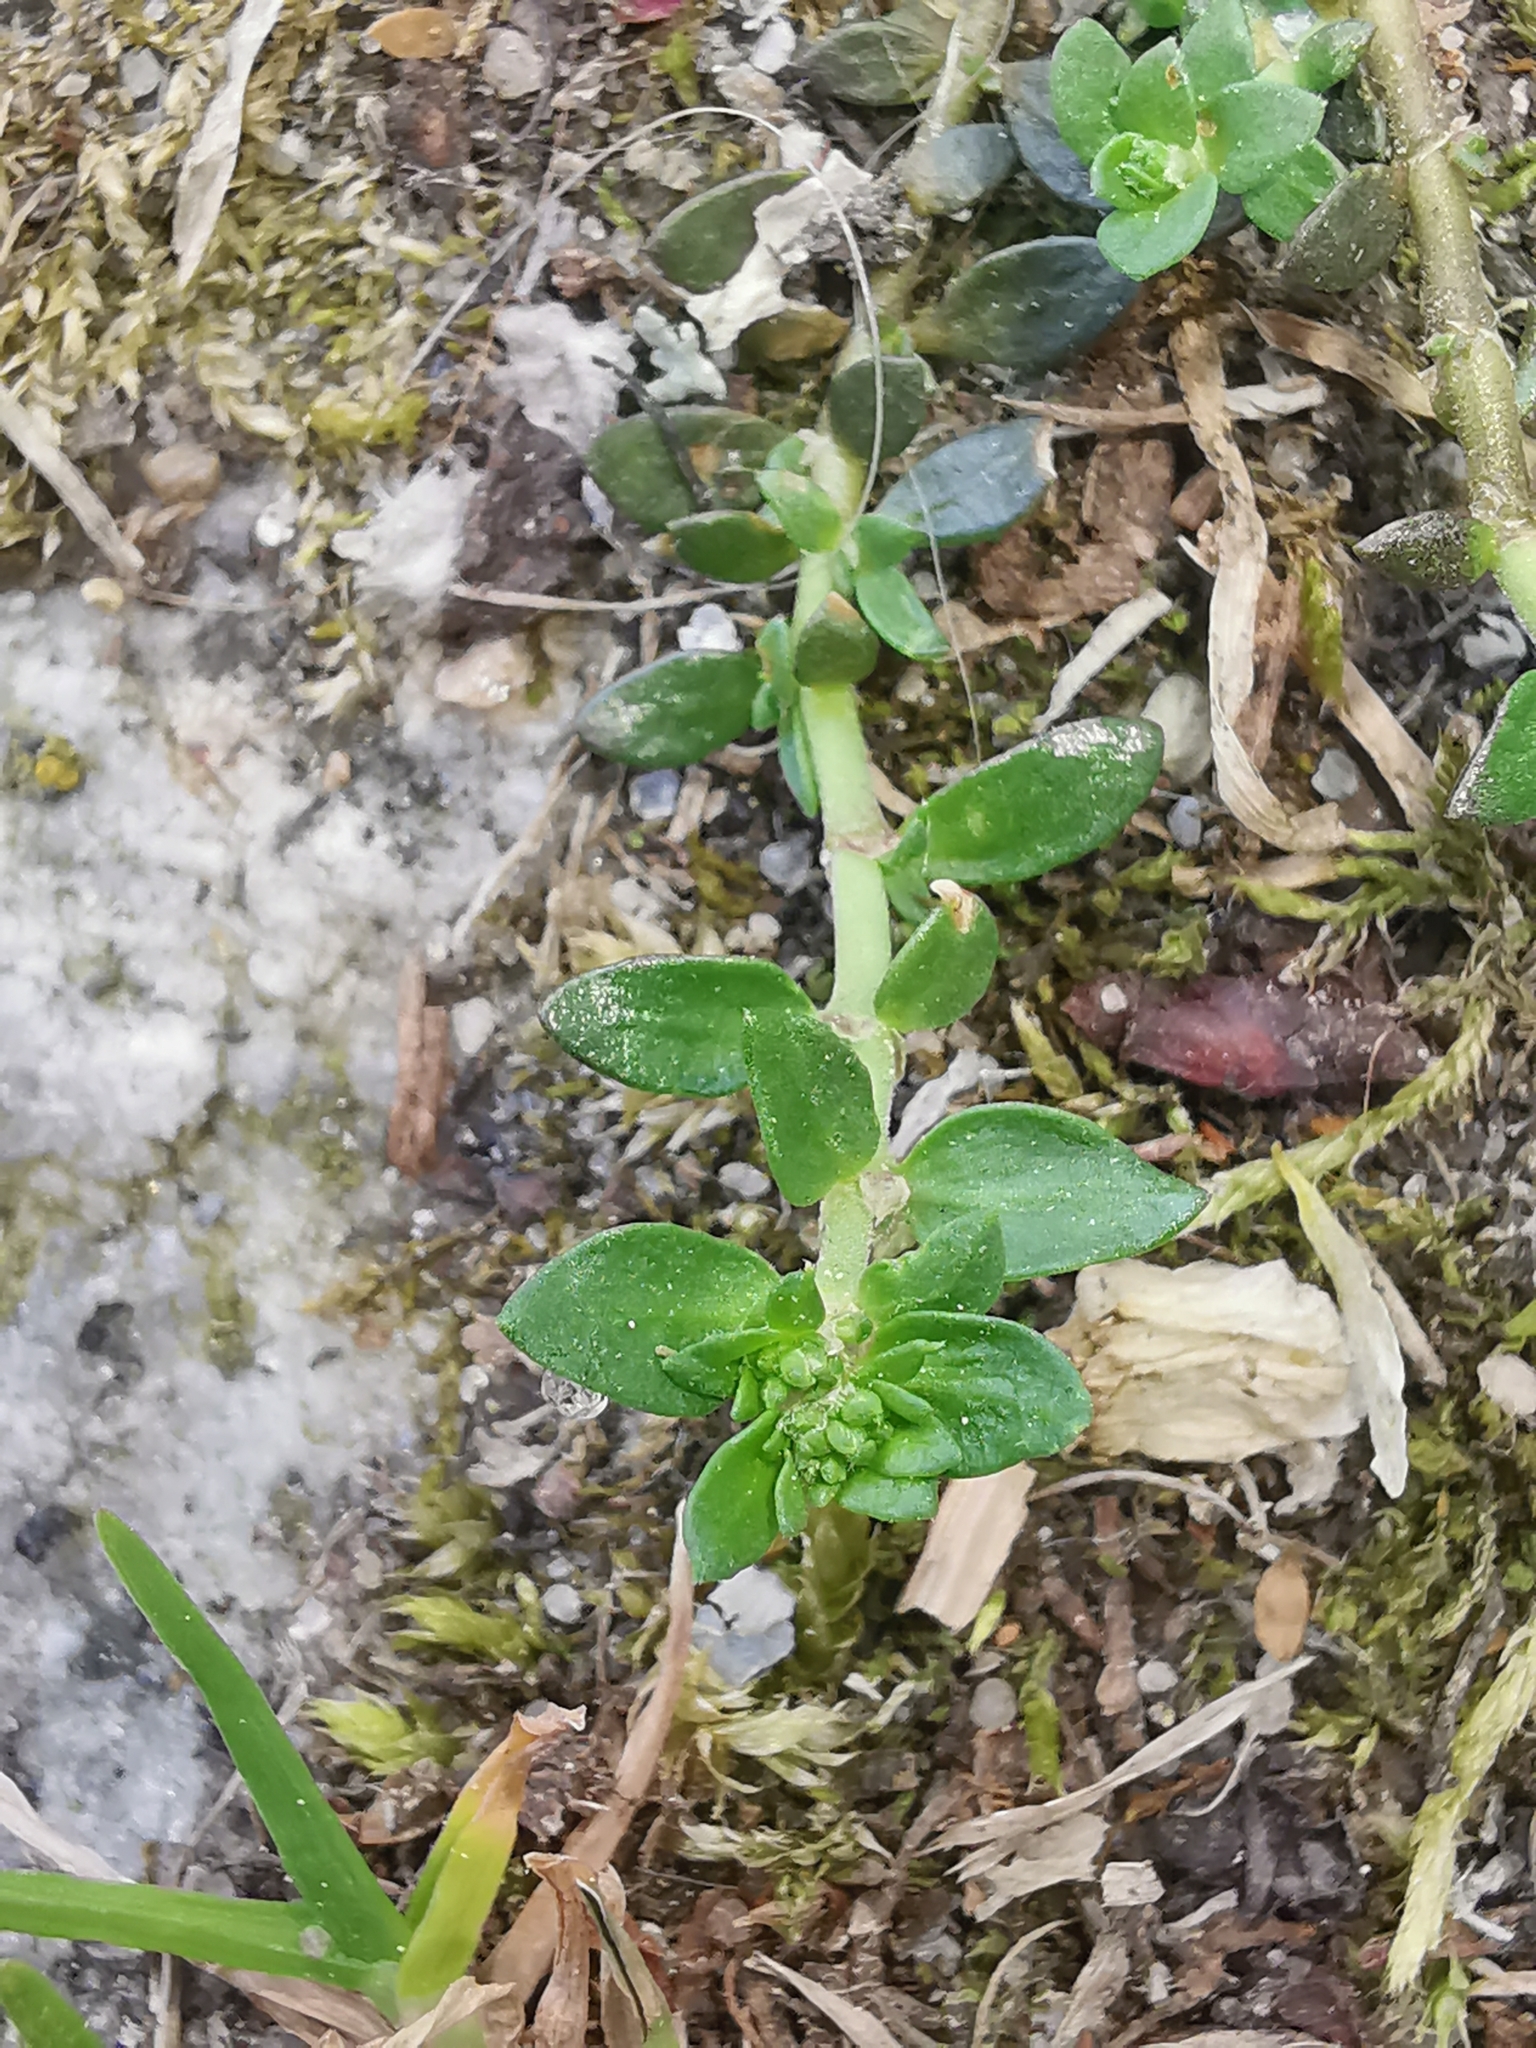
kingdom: Plantae
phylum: Tracheophyta
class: Magnoliopsida
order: Caryophyllales
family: Caryophyllaceae
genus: Herniaria
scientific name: Herniaria glabra
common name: Smooth rupturewort
